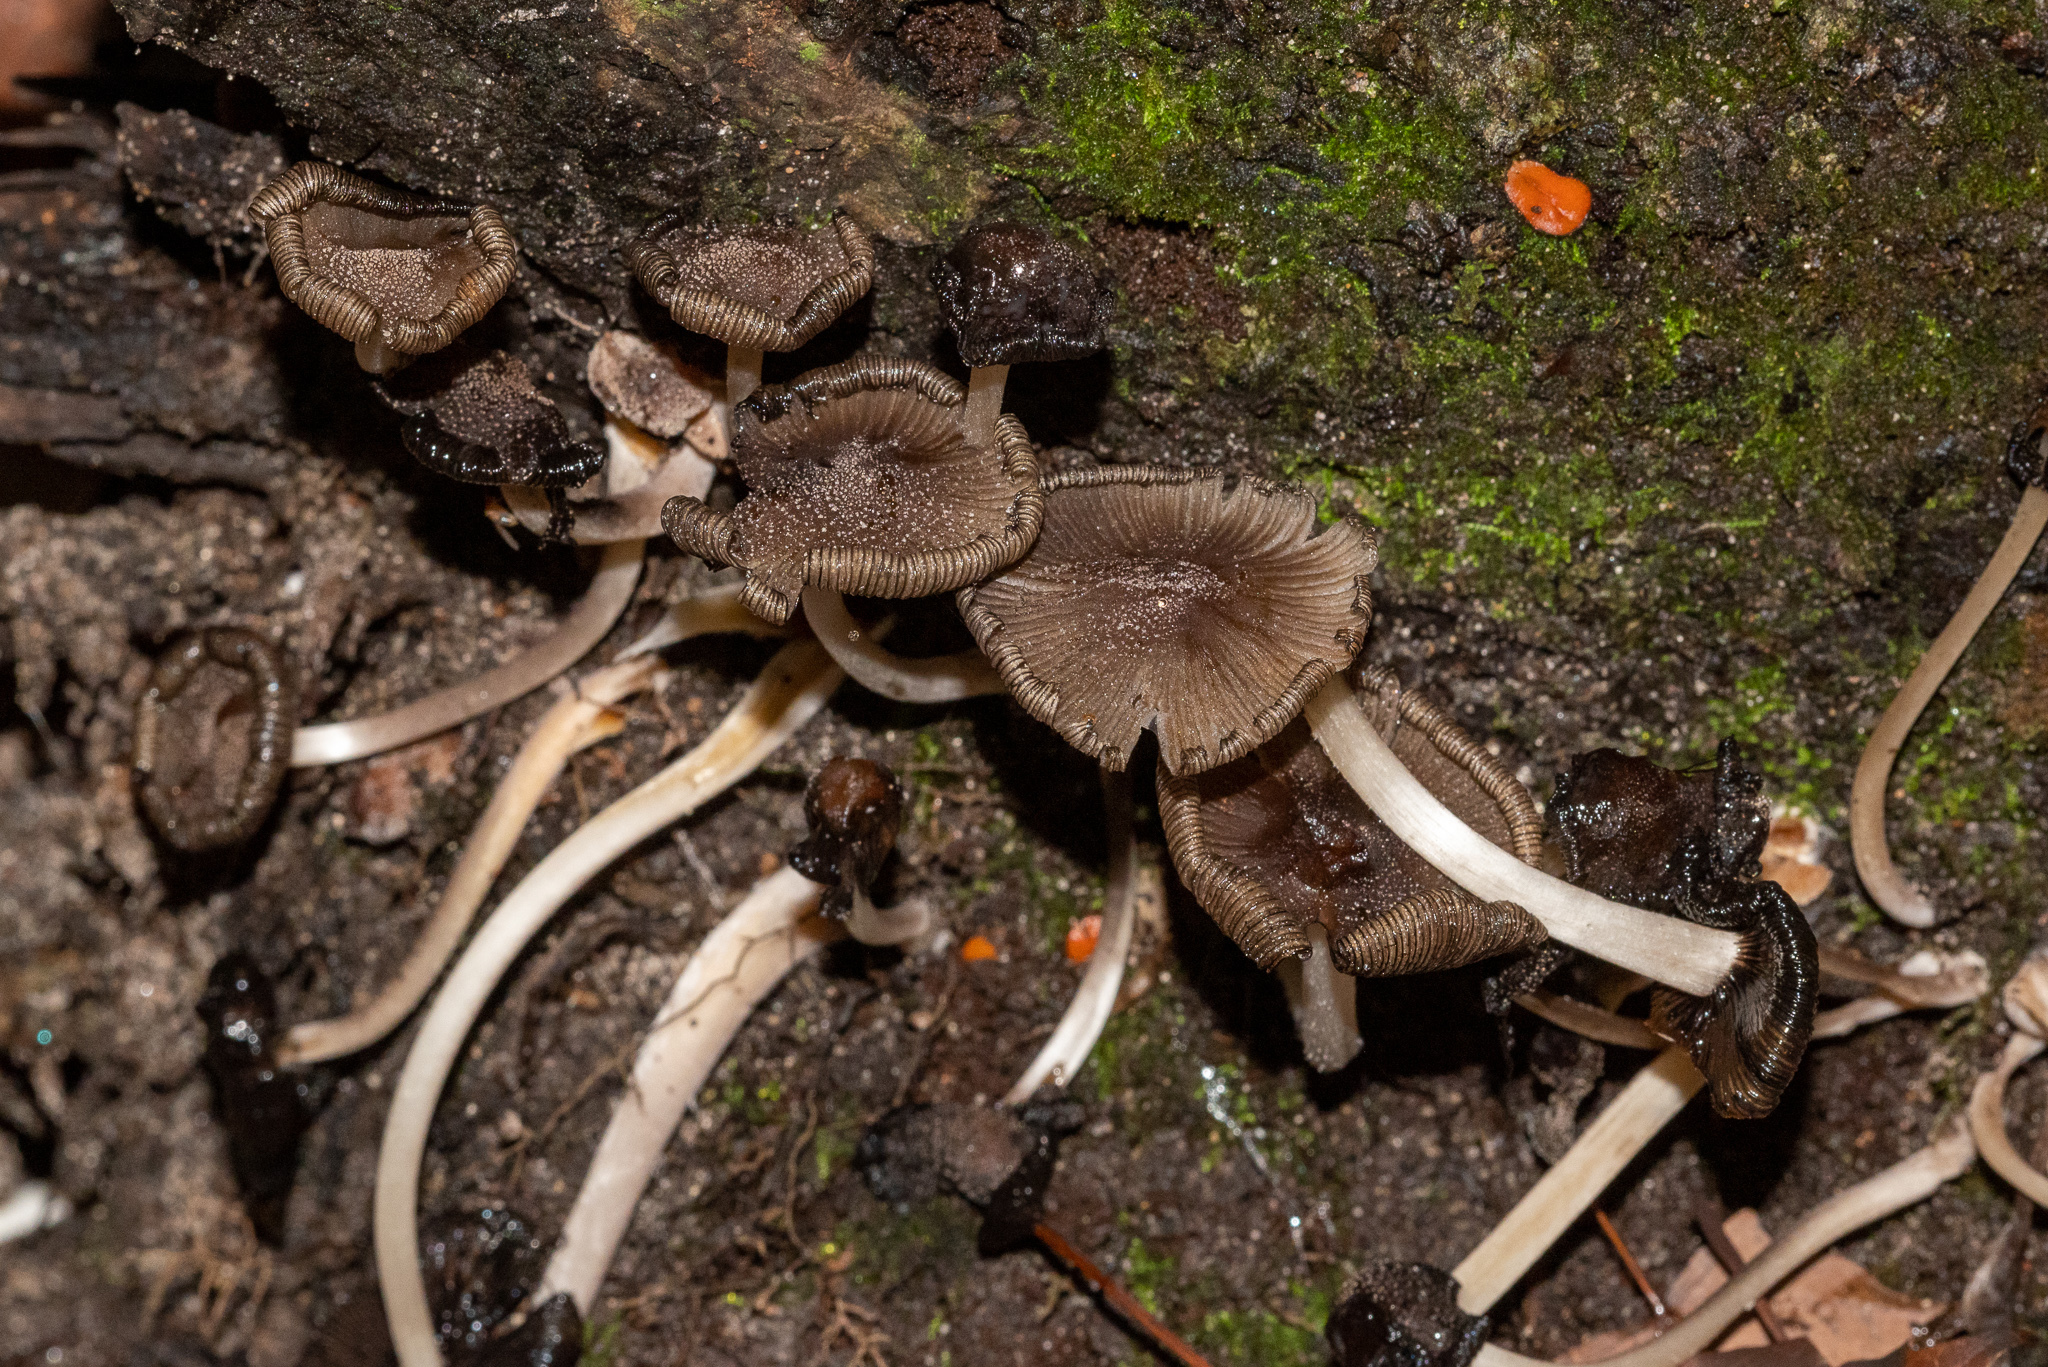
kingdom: Fungi
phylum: Basidiomycota
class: Agaricomycetes
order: Agaricales
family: Psathyrellaceae
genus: Coprinopsis
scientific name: Coprinopsis lagopus
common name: Hare'sfoot inkcap
